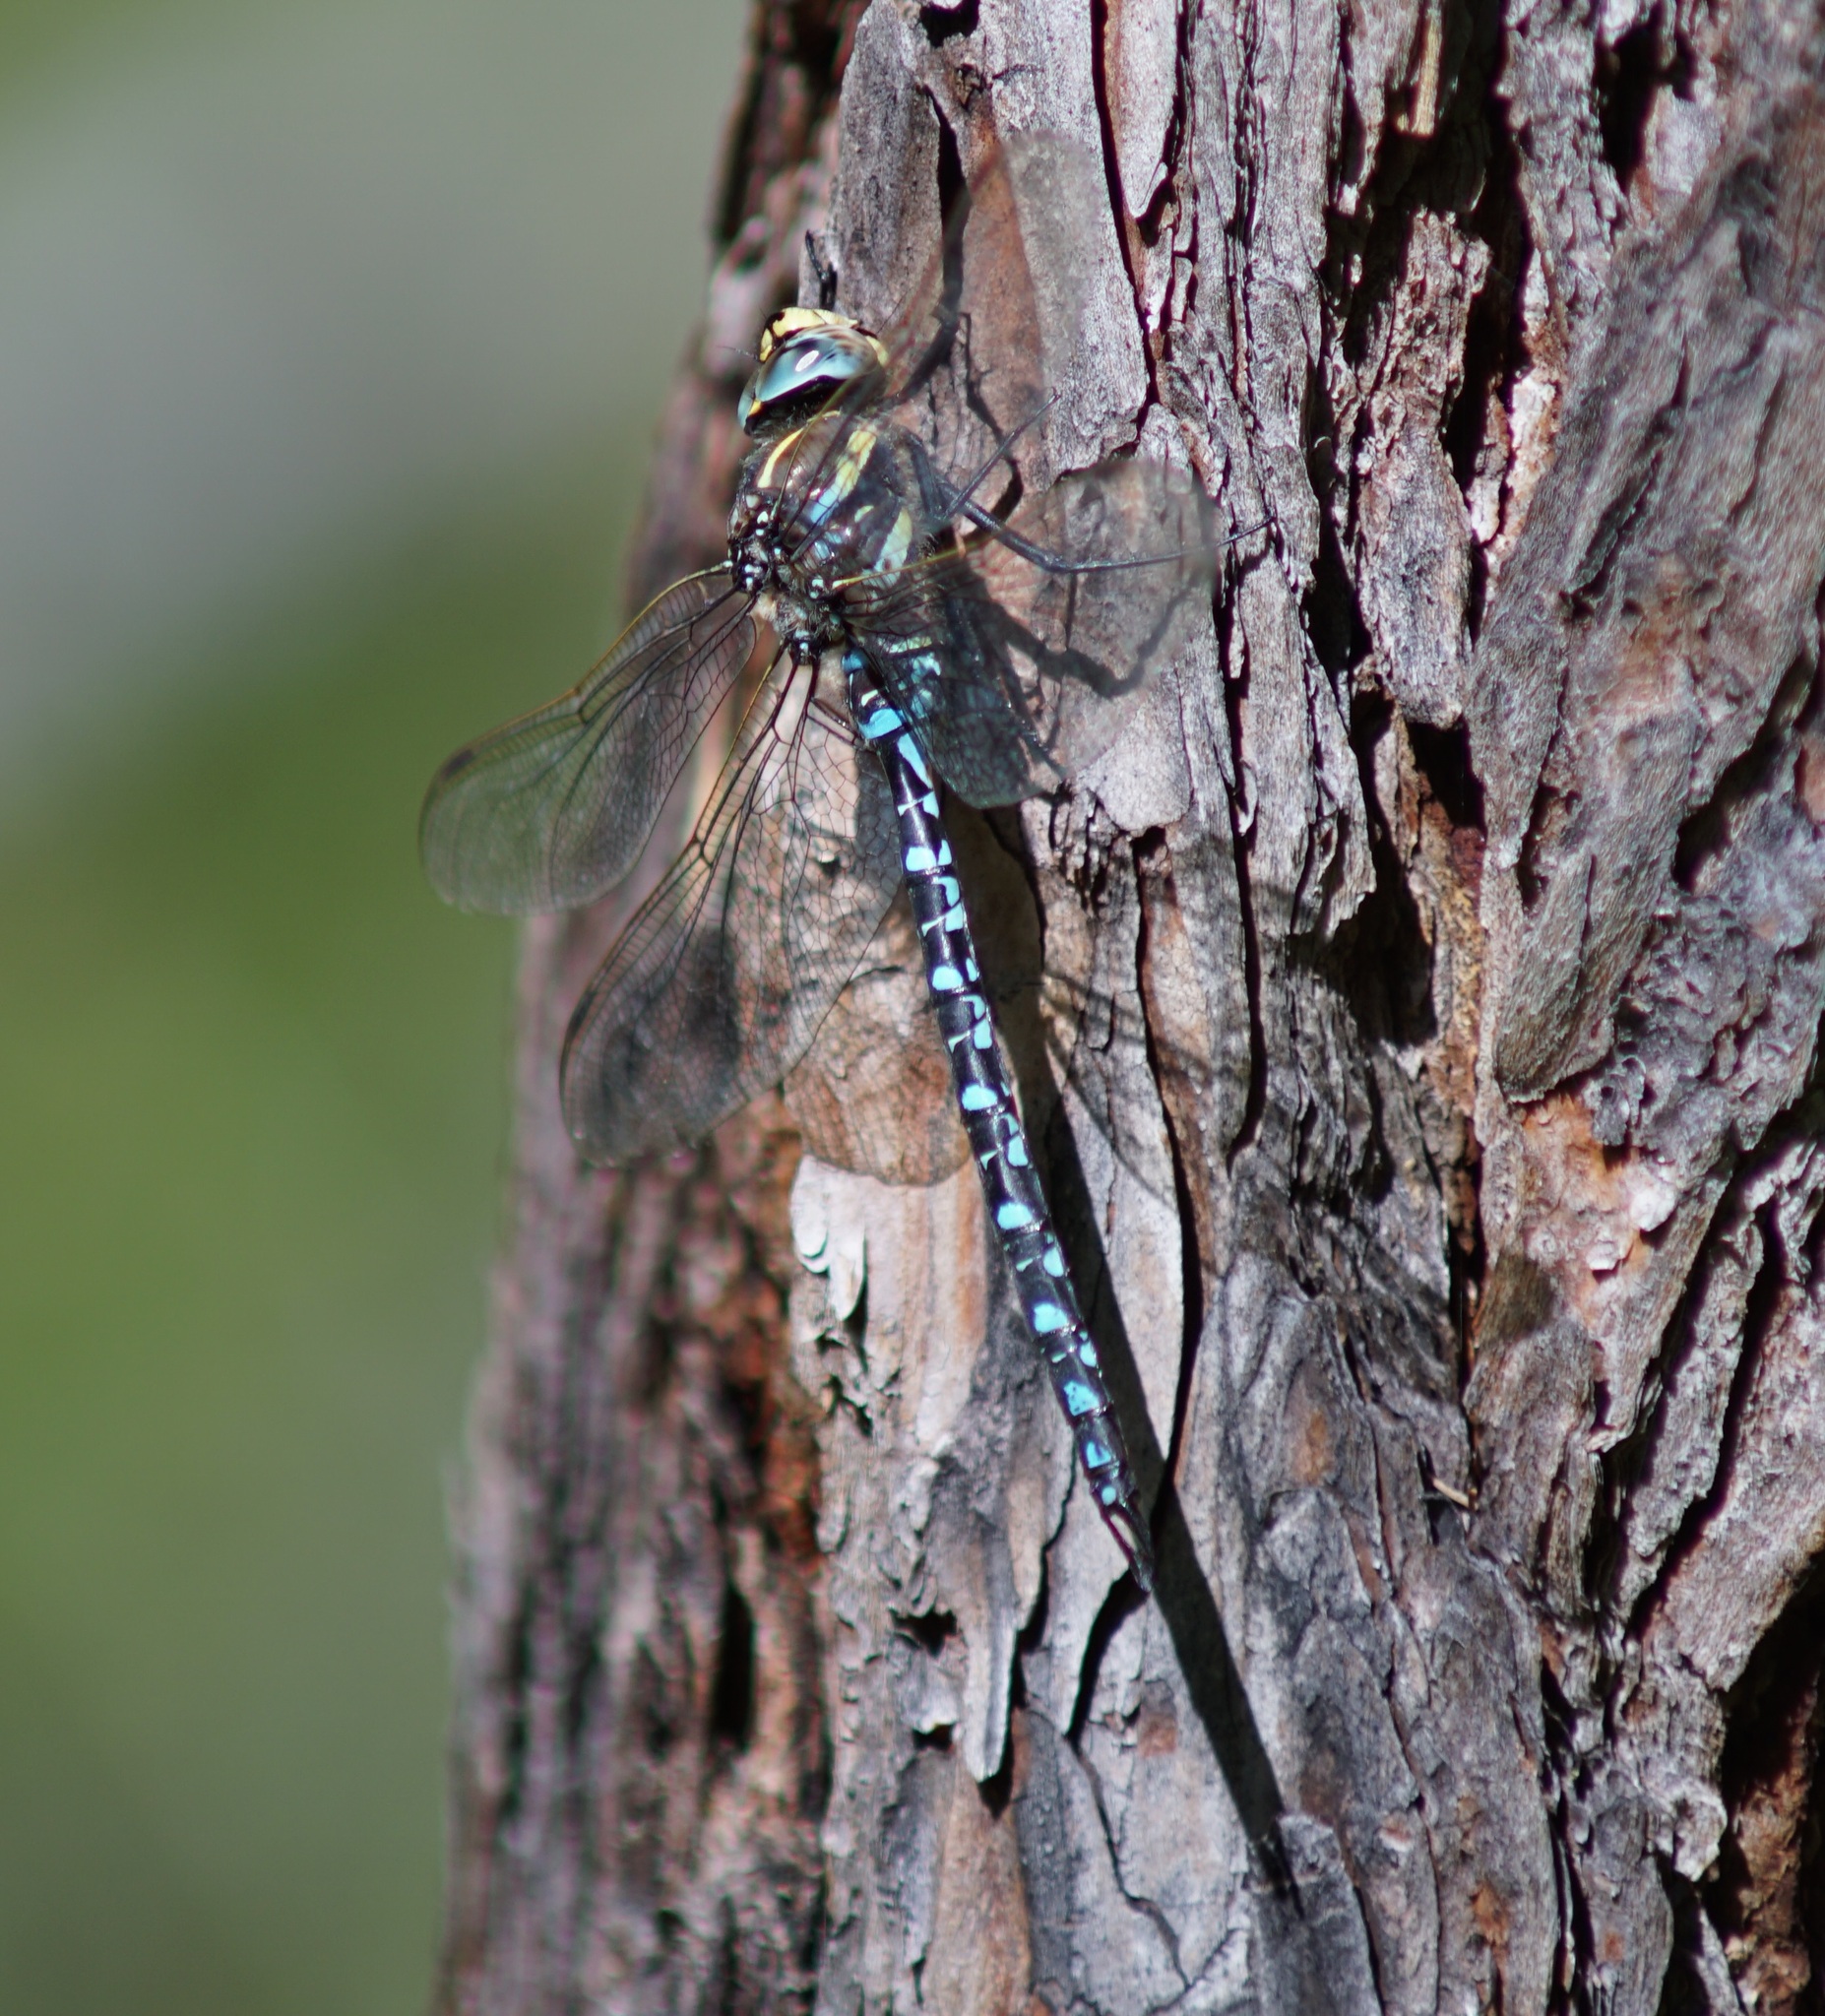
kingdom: Animalia
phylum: Arthropoda
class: Insecta
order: Odonata
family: Aeshnidae
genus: Aeshna
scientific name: Aeshna juncea
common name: Moorland hawker
